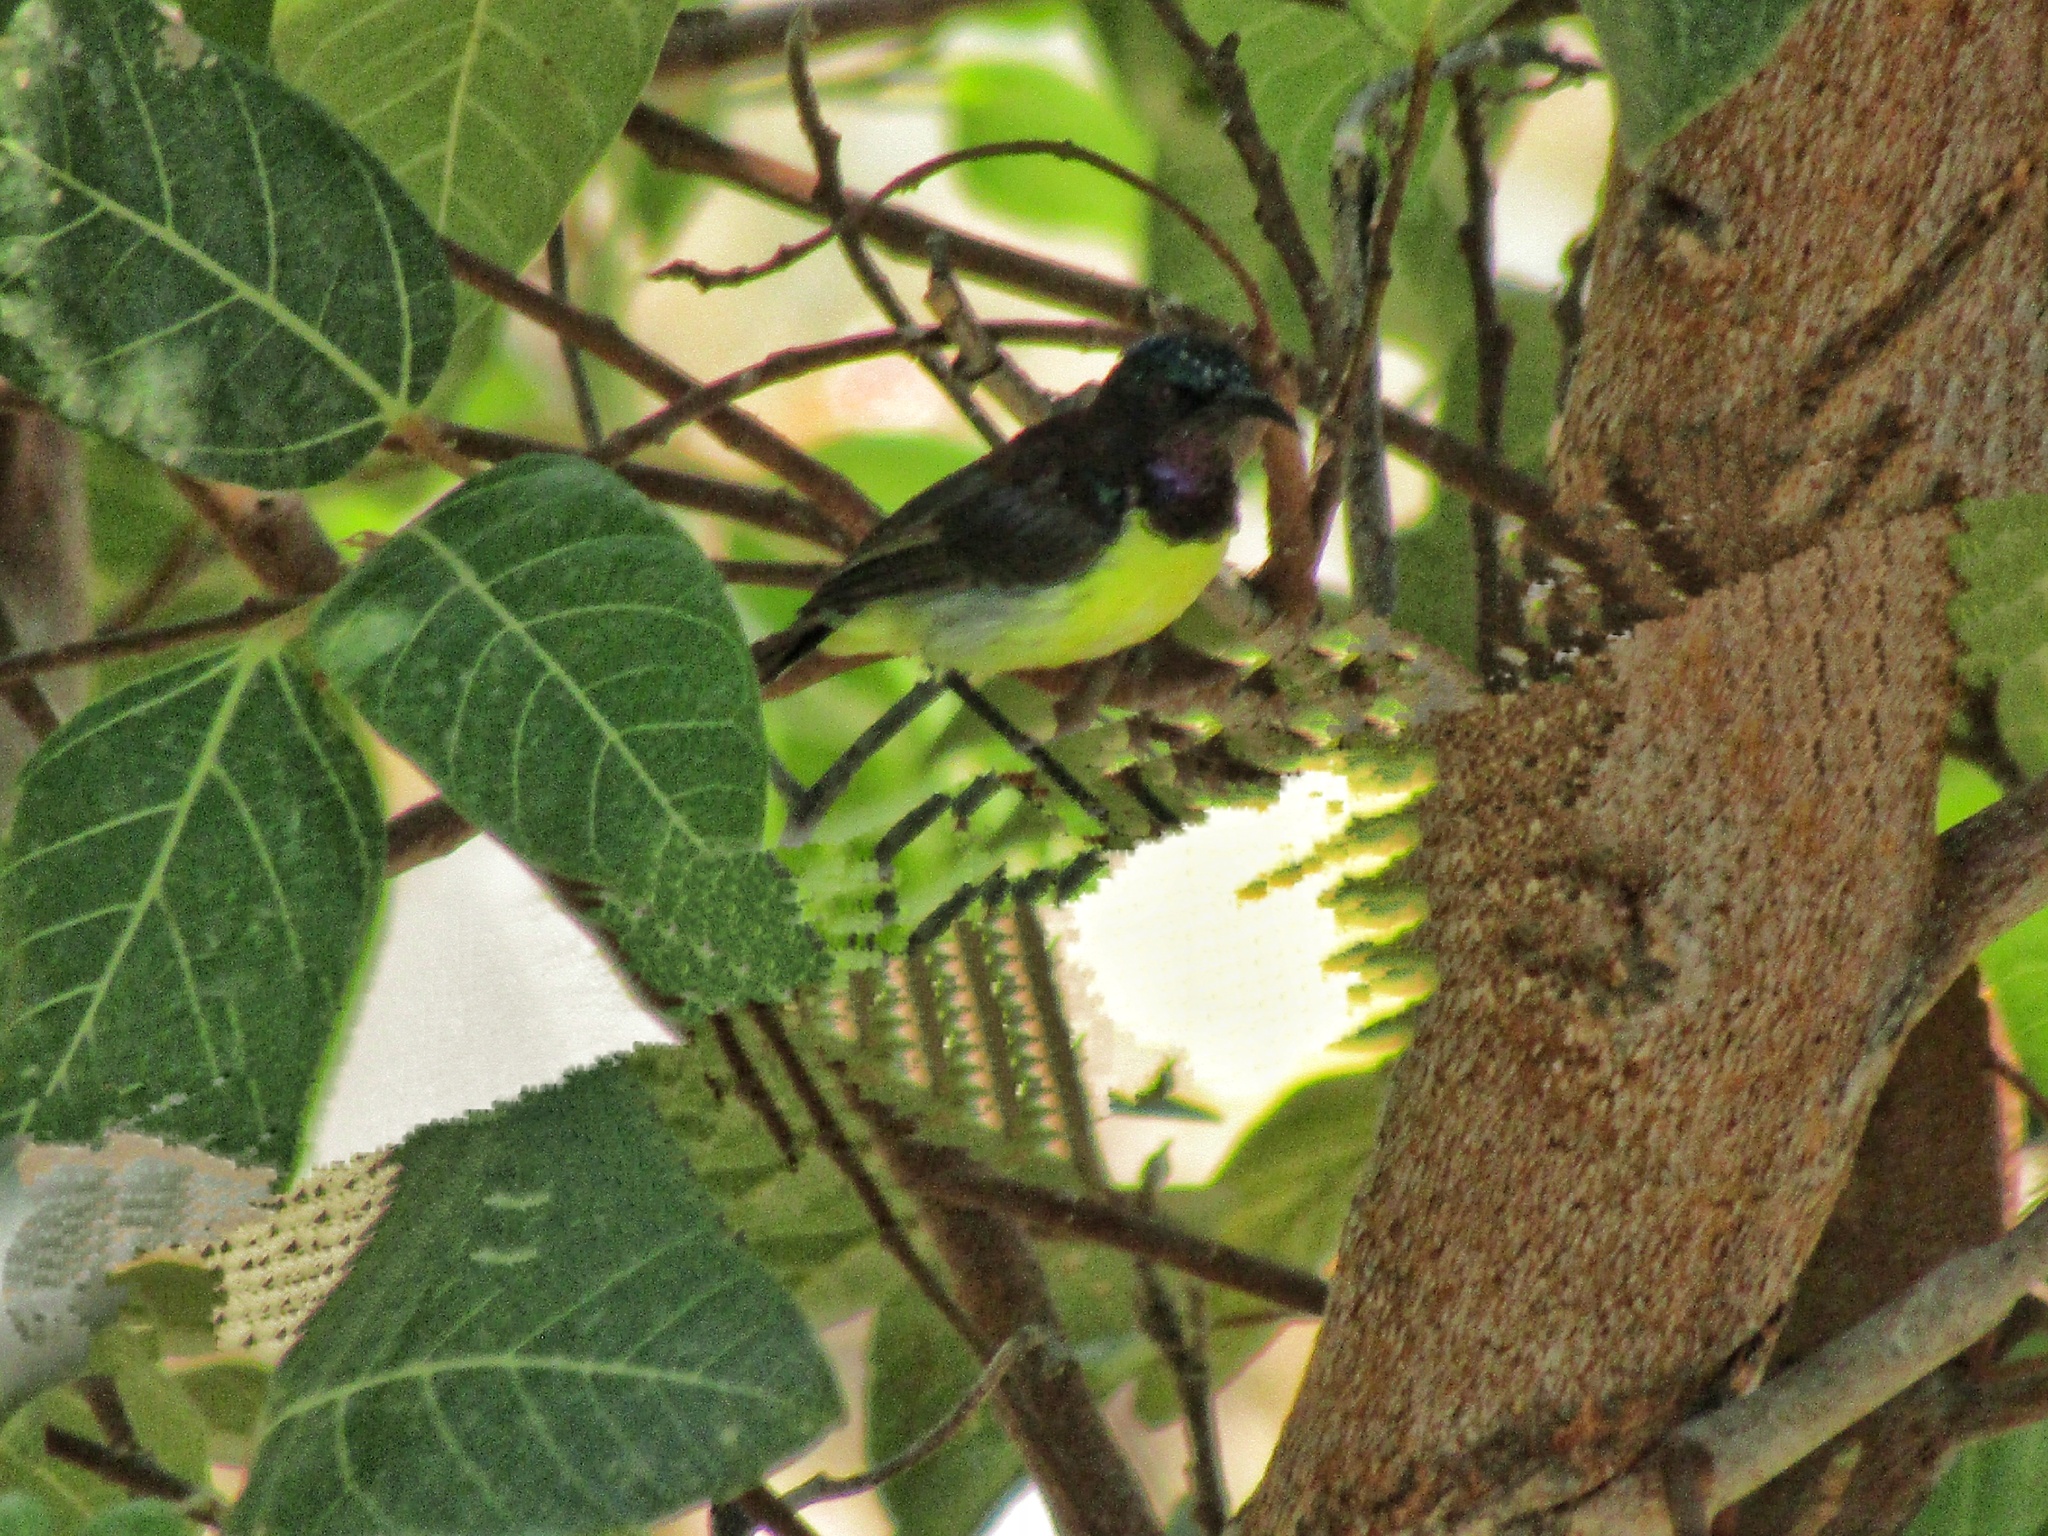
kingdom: Animalia
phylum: Chordata
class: Aves
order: Passeriformes
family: Nectariniidae
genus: Leptocoma
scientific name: Leptocoma zeylonica
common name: Purple-rumped sunbird
